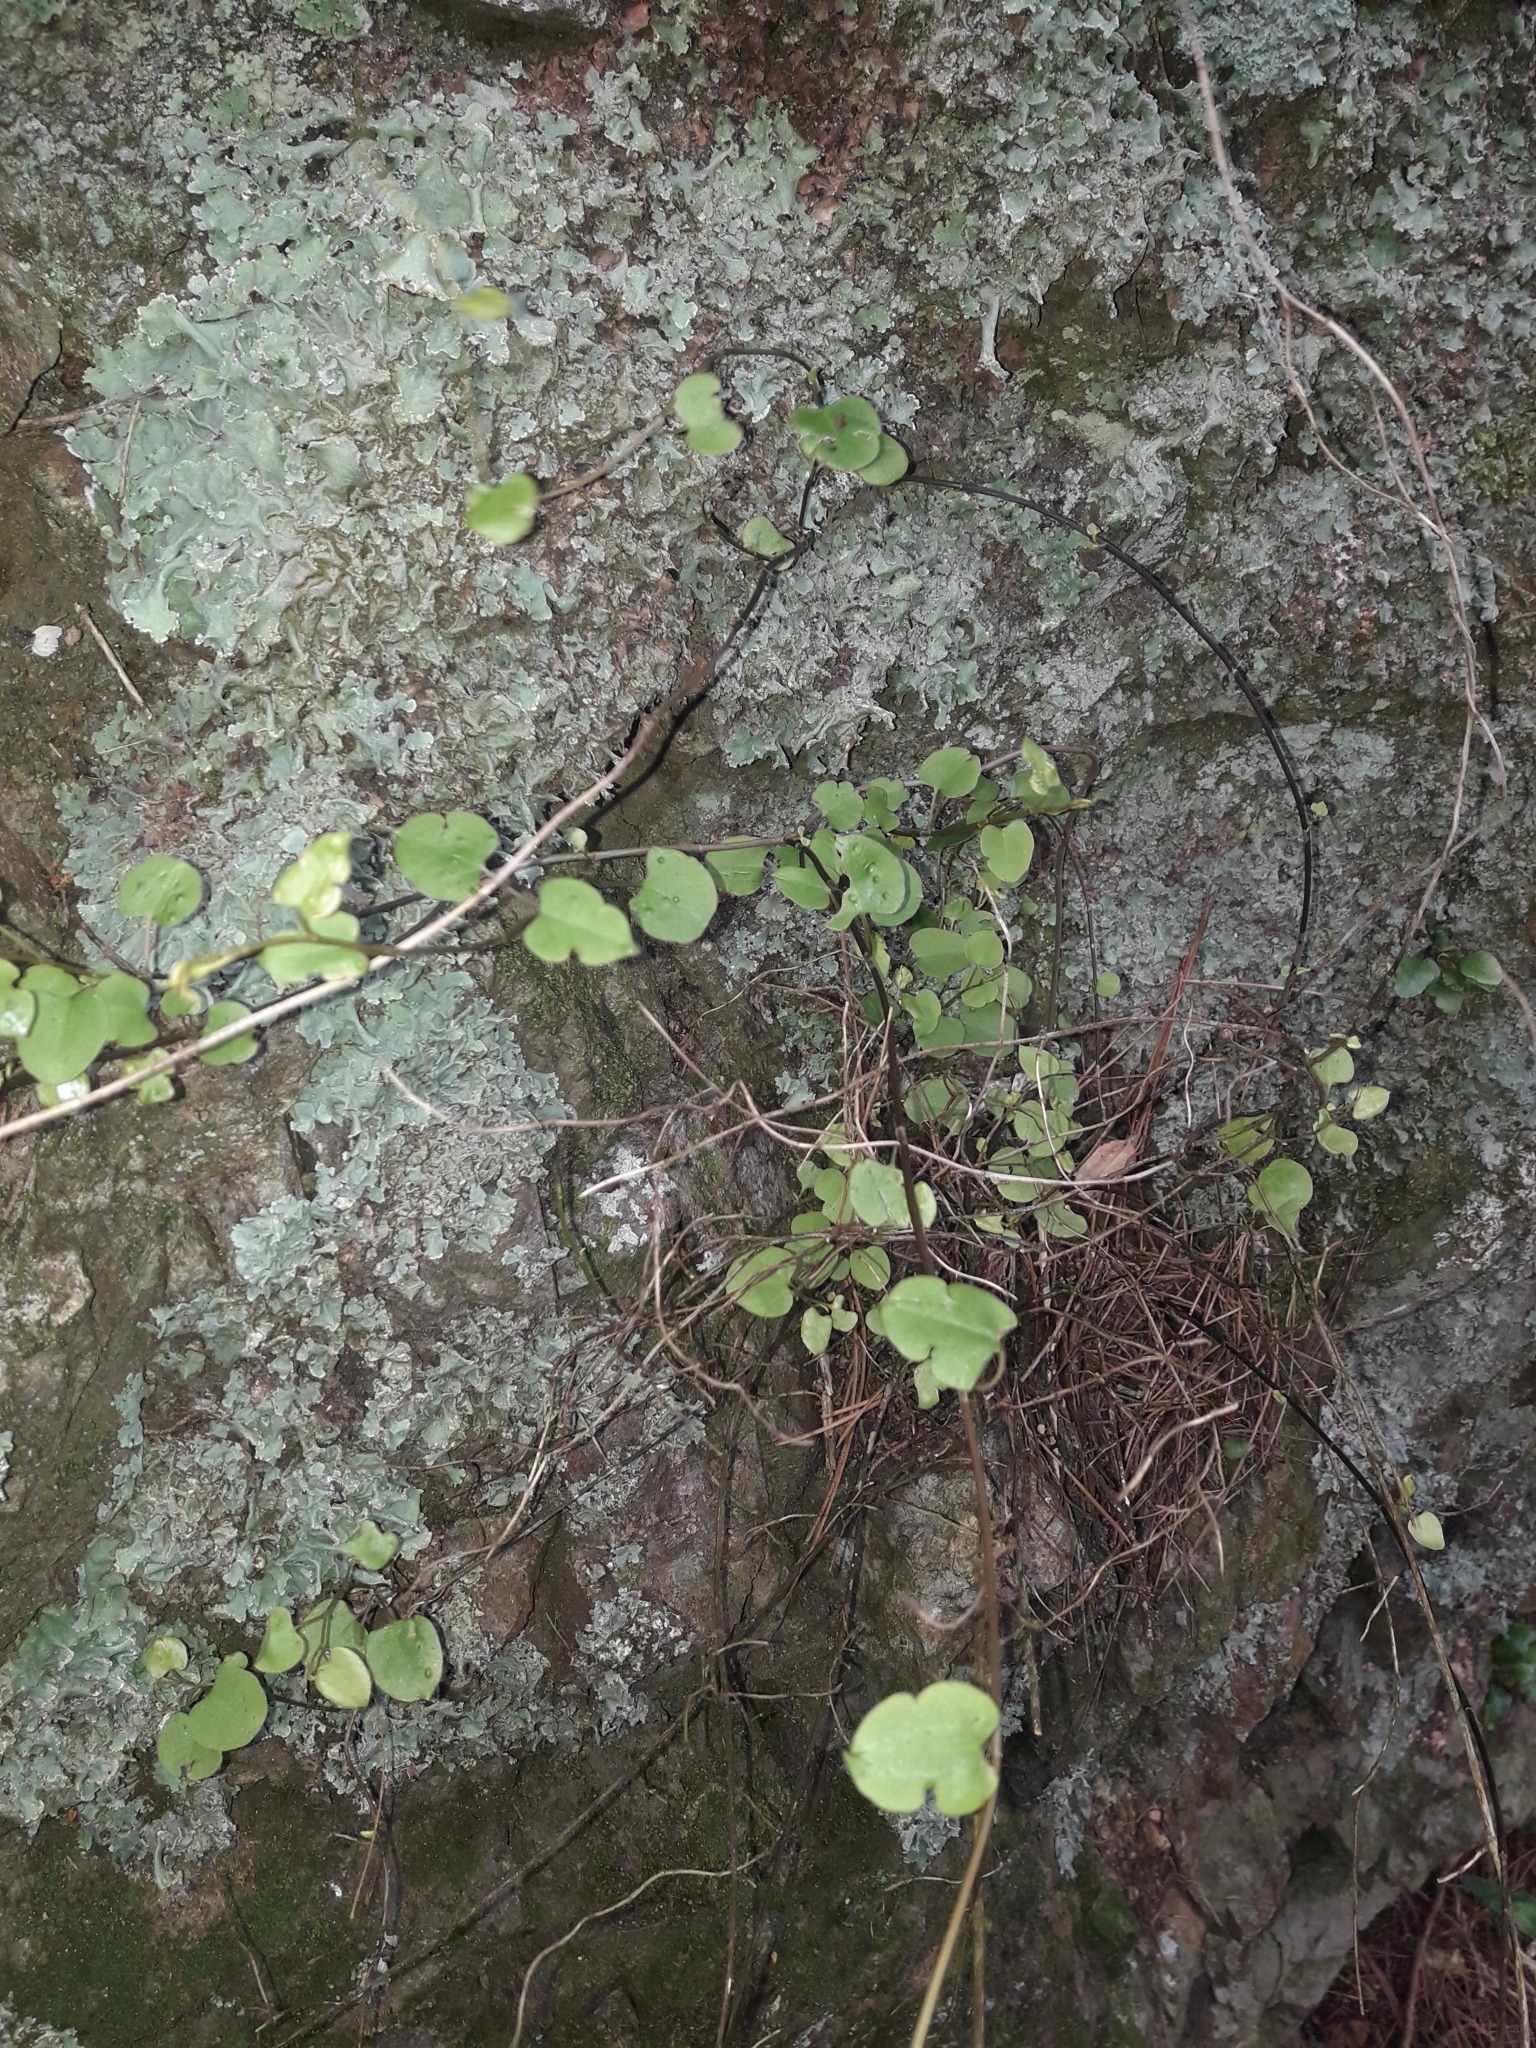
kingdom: Plantae
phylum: Tracheophyta
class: Magnoliopsida
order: Caryophyllales
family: Polygonaceae
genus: Muehlenbeckia
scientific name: Muehlenbeckia australis
